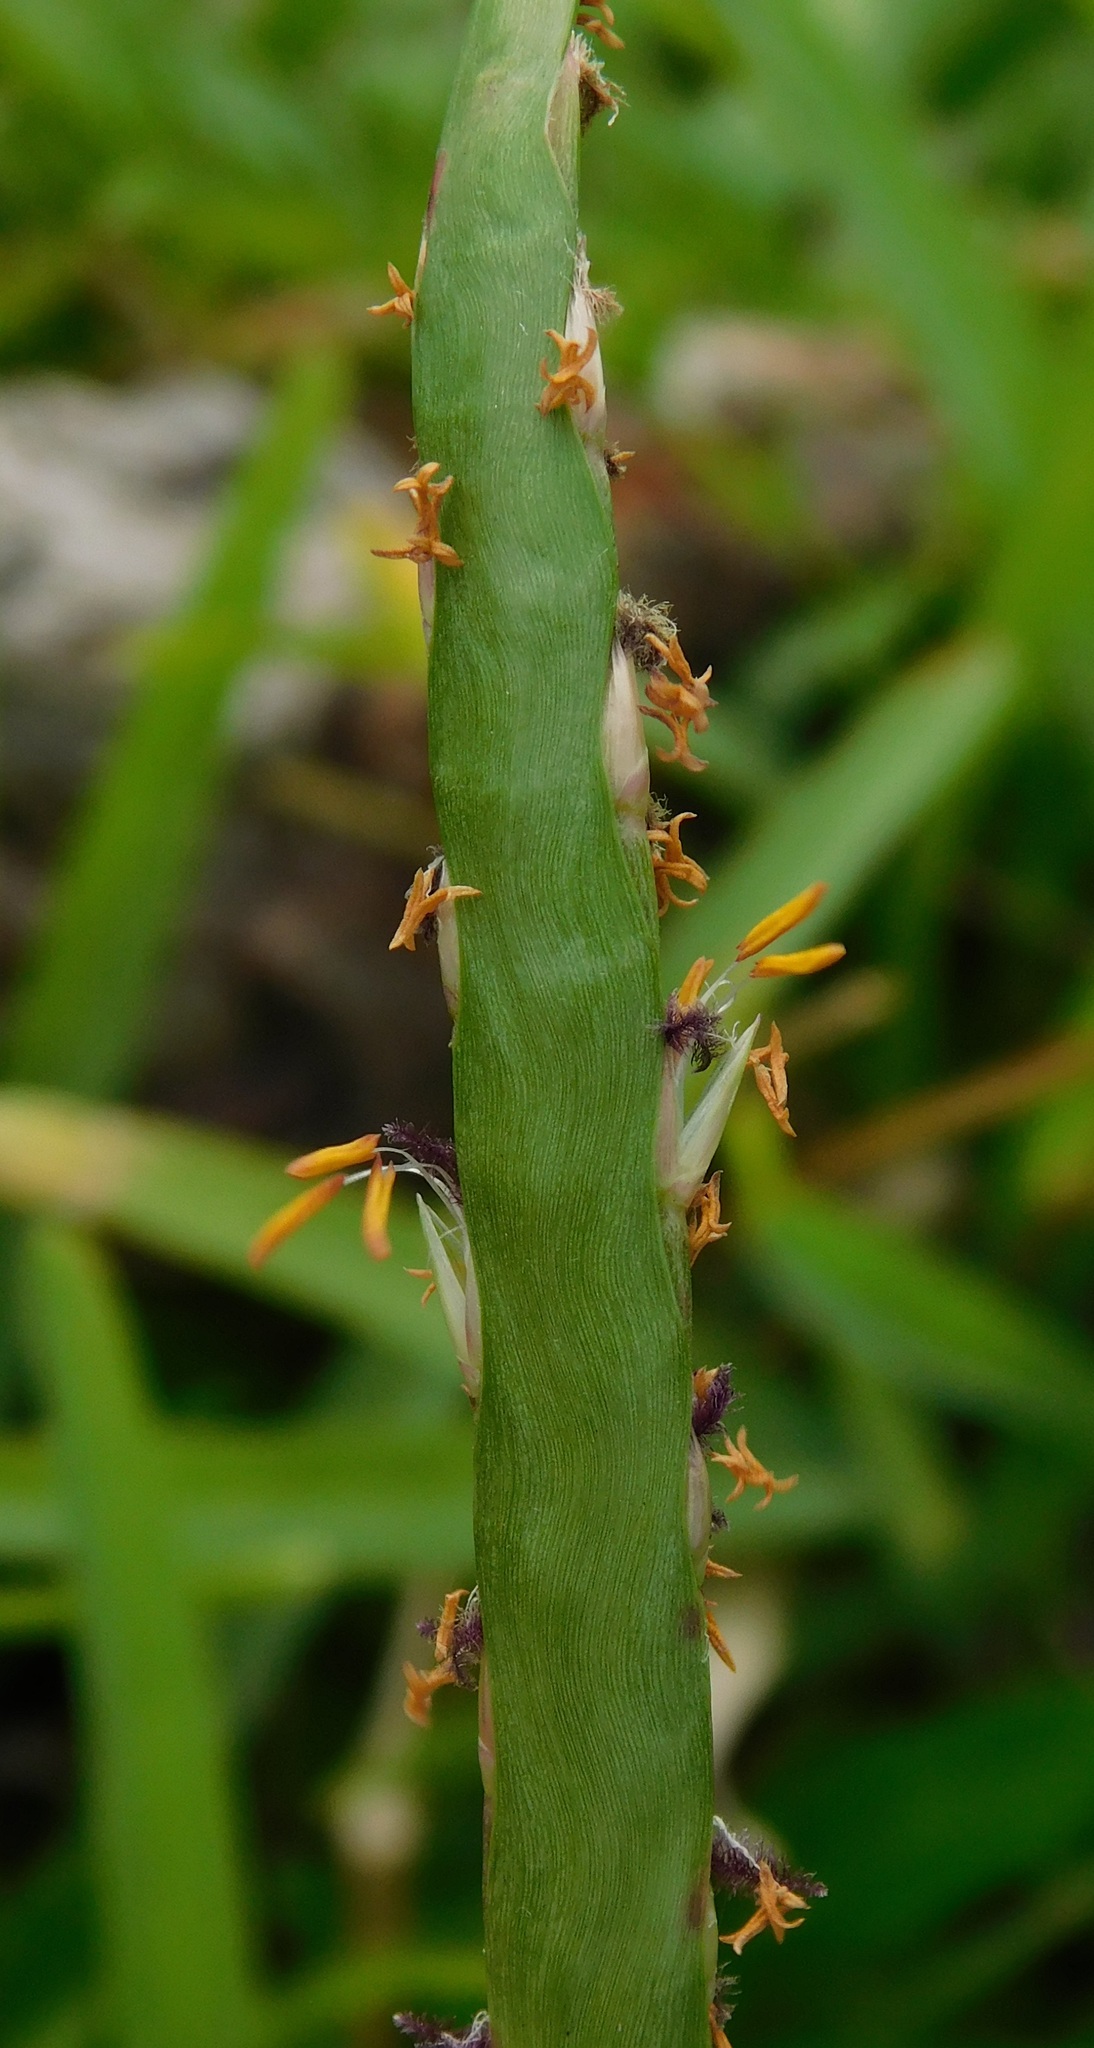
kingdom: Plantae
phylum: Tracheophyta
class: Liliopsida
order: Poales
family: Poaceae
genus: Stenotaphrum
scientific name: Stenotaphrum secundatum
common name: St. augustine grass
